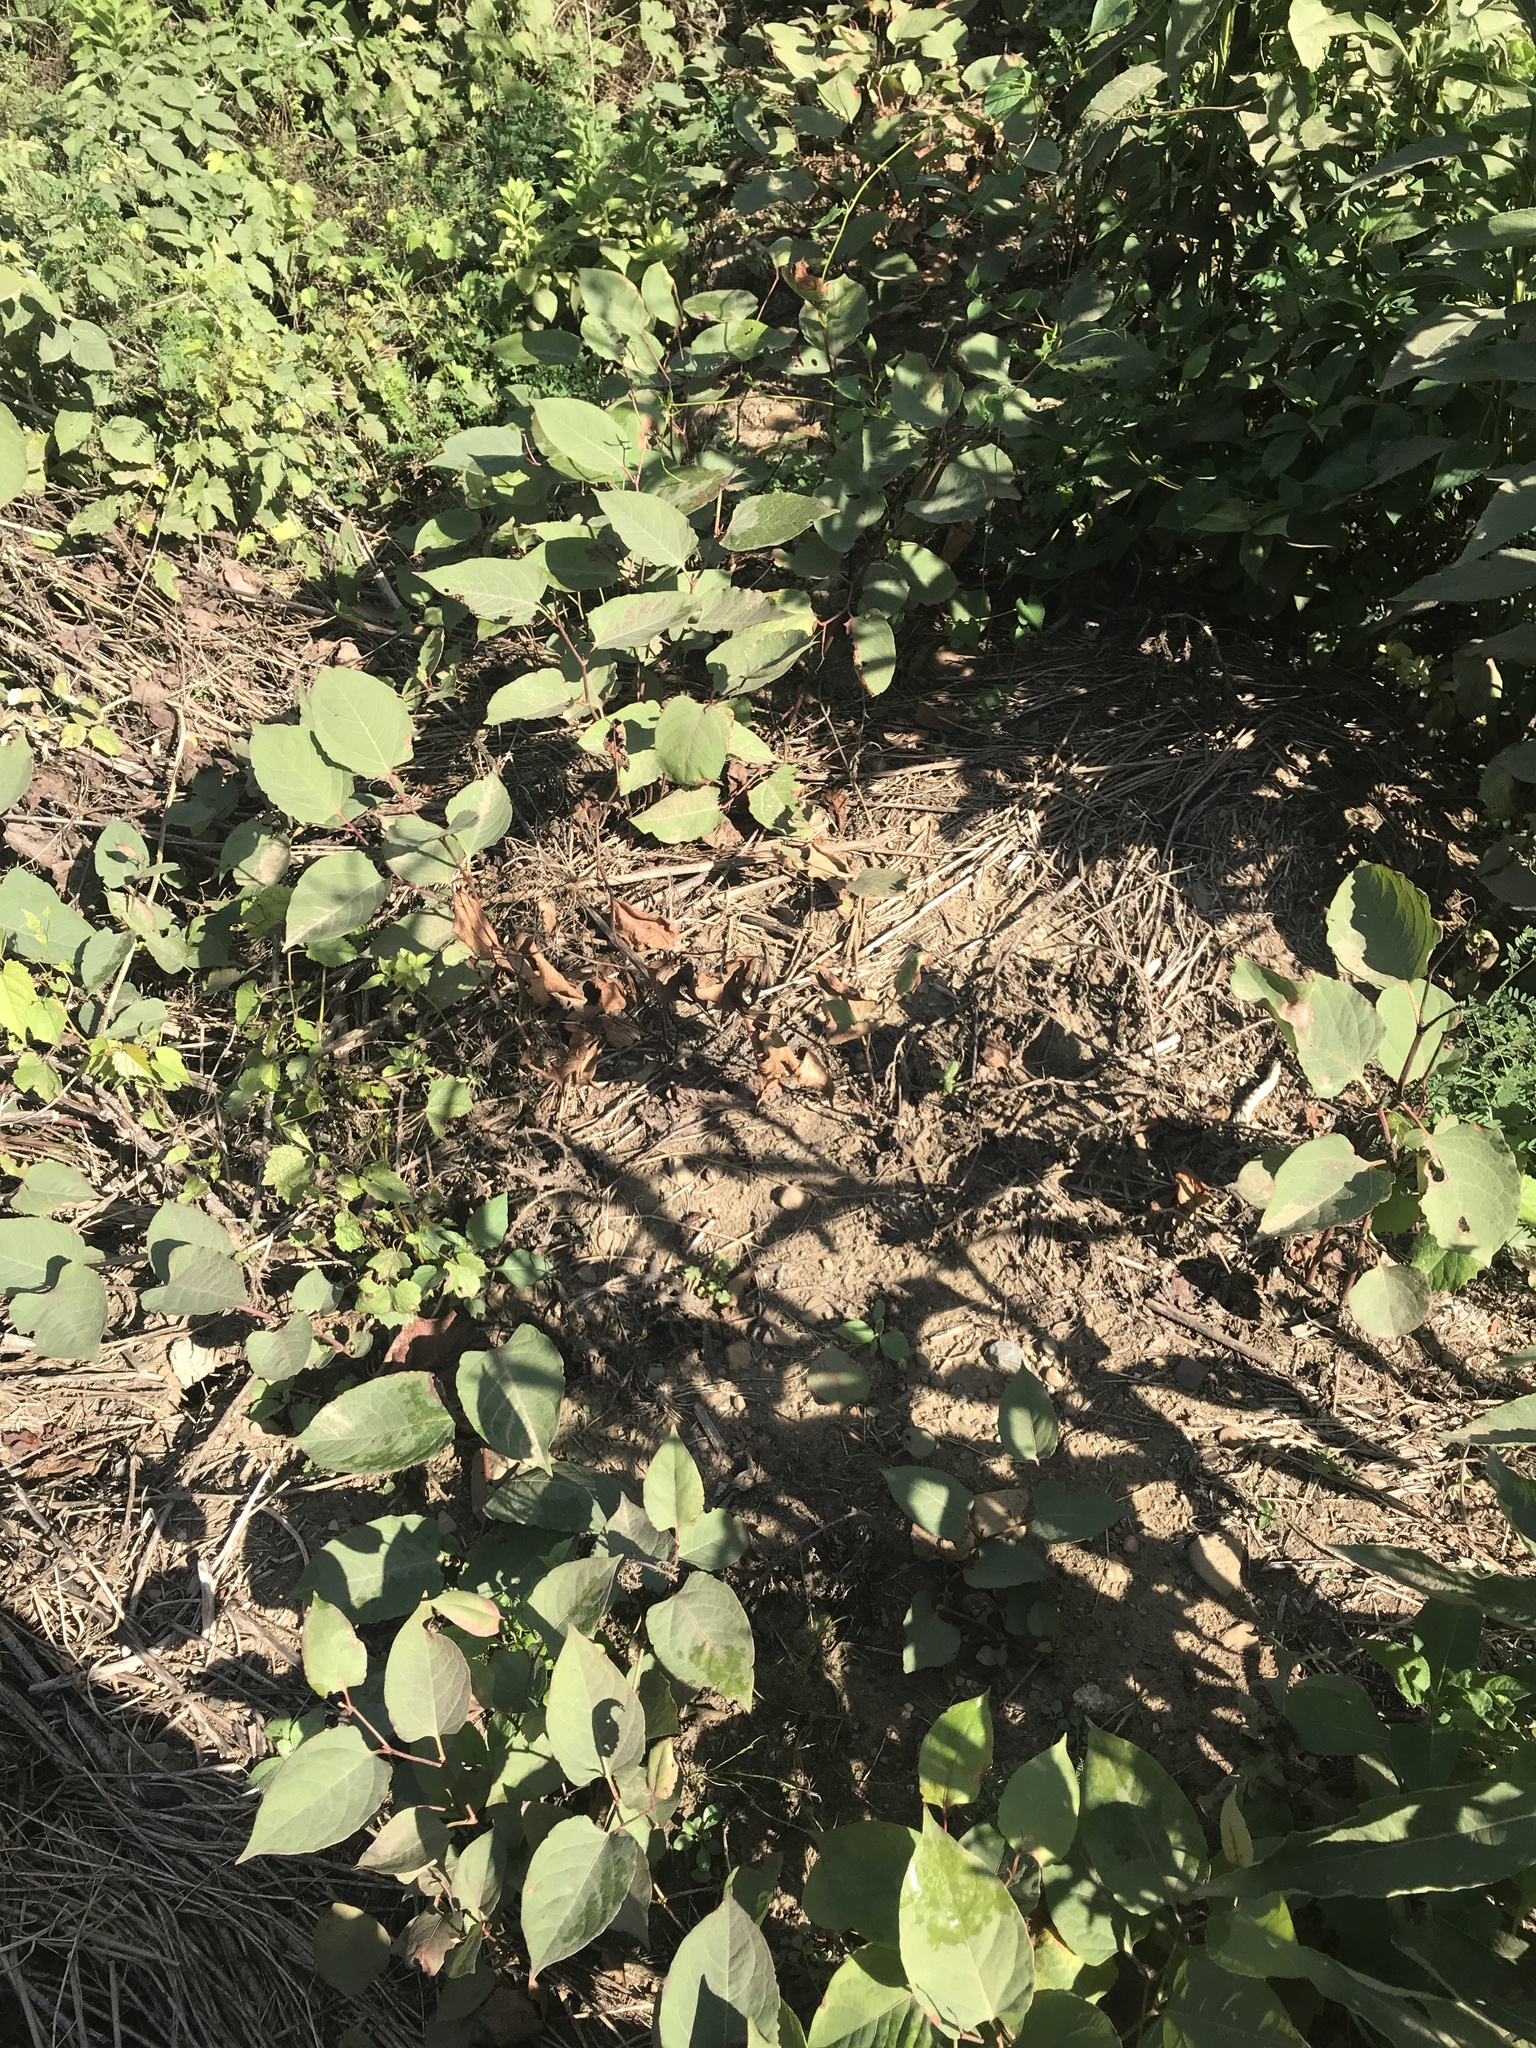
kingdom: Plantae
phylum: Tracheophyta
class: Magnoliopsida
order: Caryophyllales
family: Polygonaceae
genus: Reynoutria
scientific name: Reynoutria japonica
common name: Japanese knotweed
